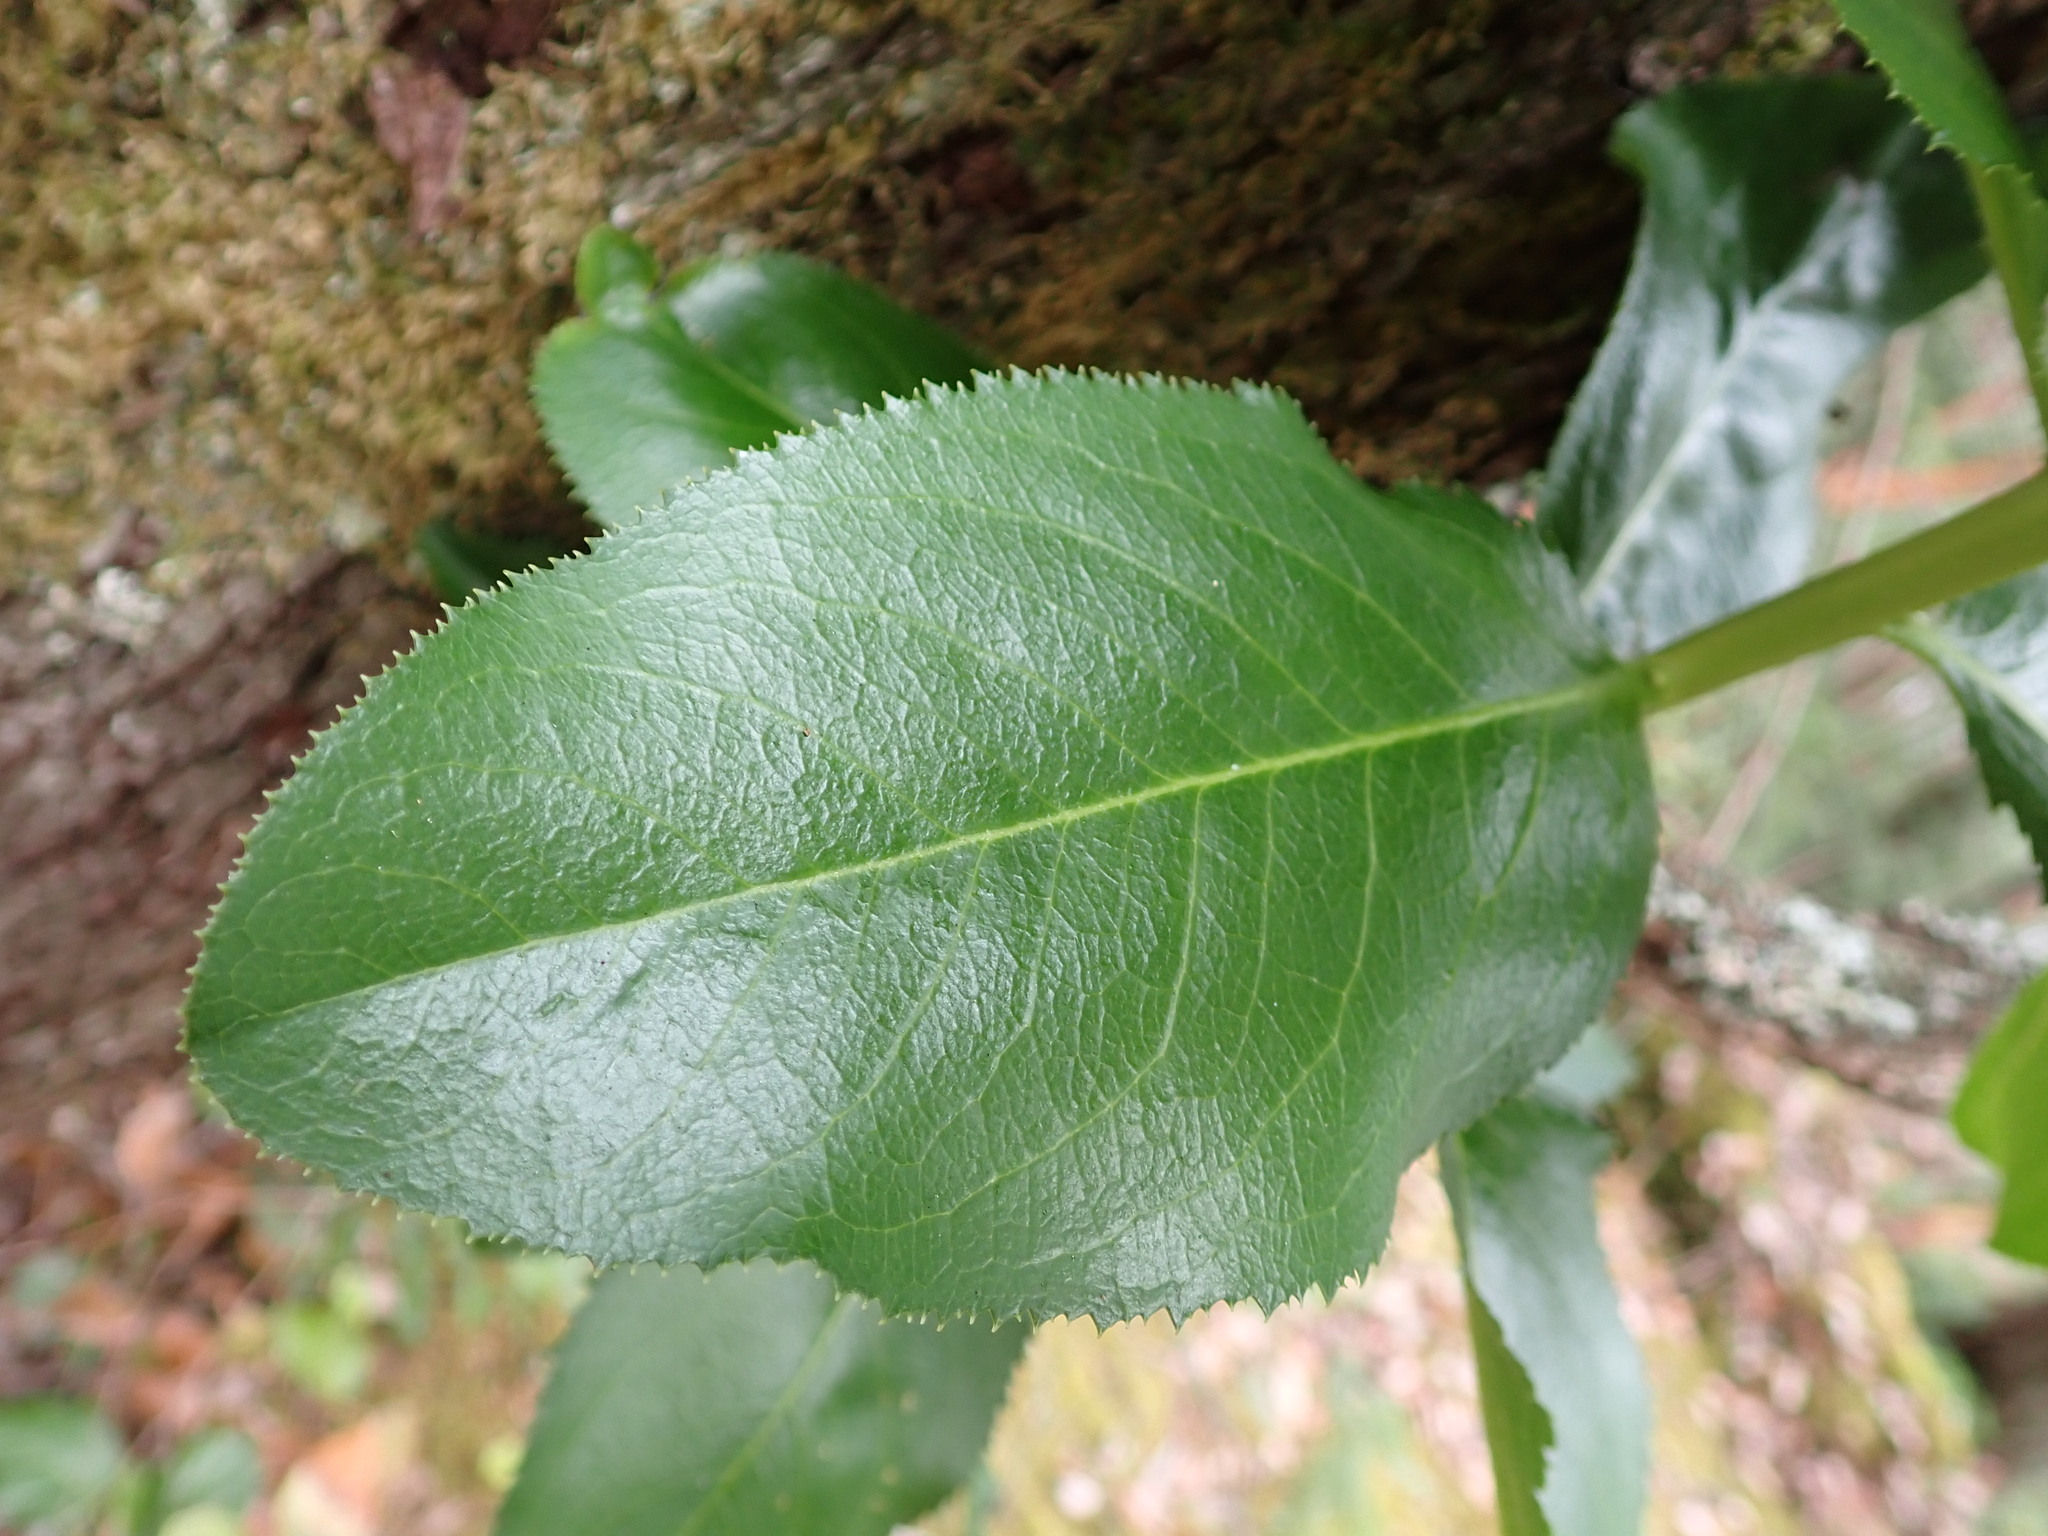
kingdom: Plantae
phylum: Tracheophyta
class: Magnoliopsida
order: Ericales
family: Ericaceae
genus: Arbutus
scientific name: Arbutus menziesii
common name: Pacific madrone
